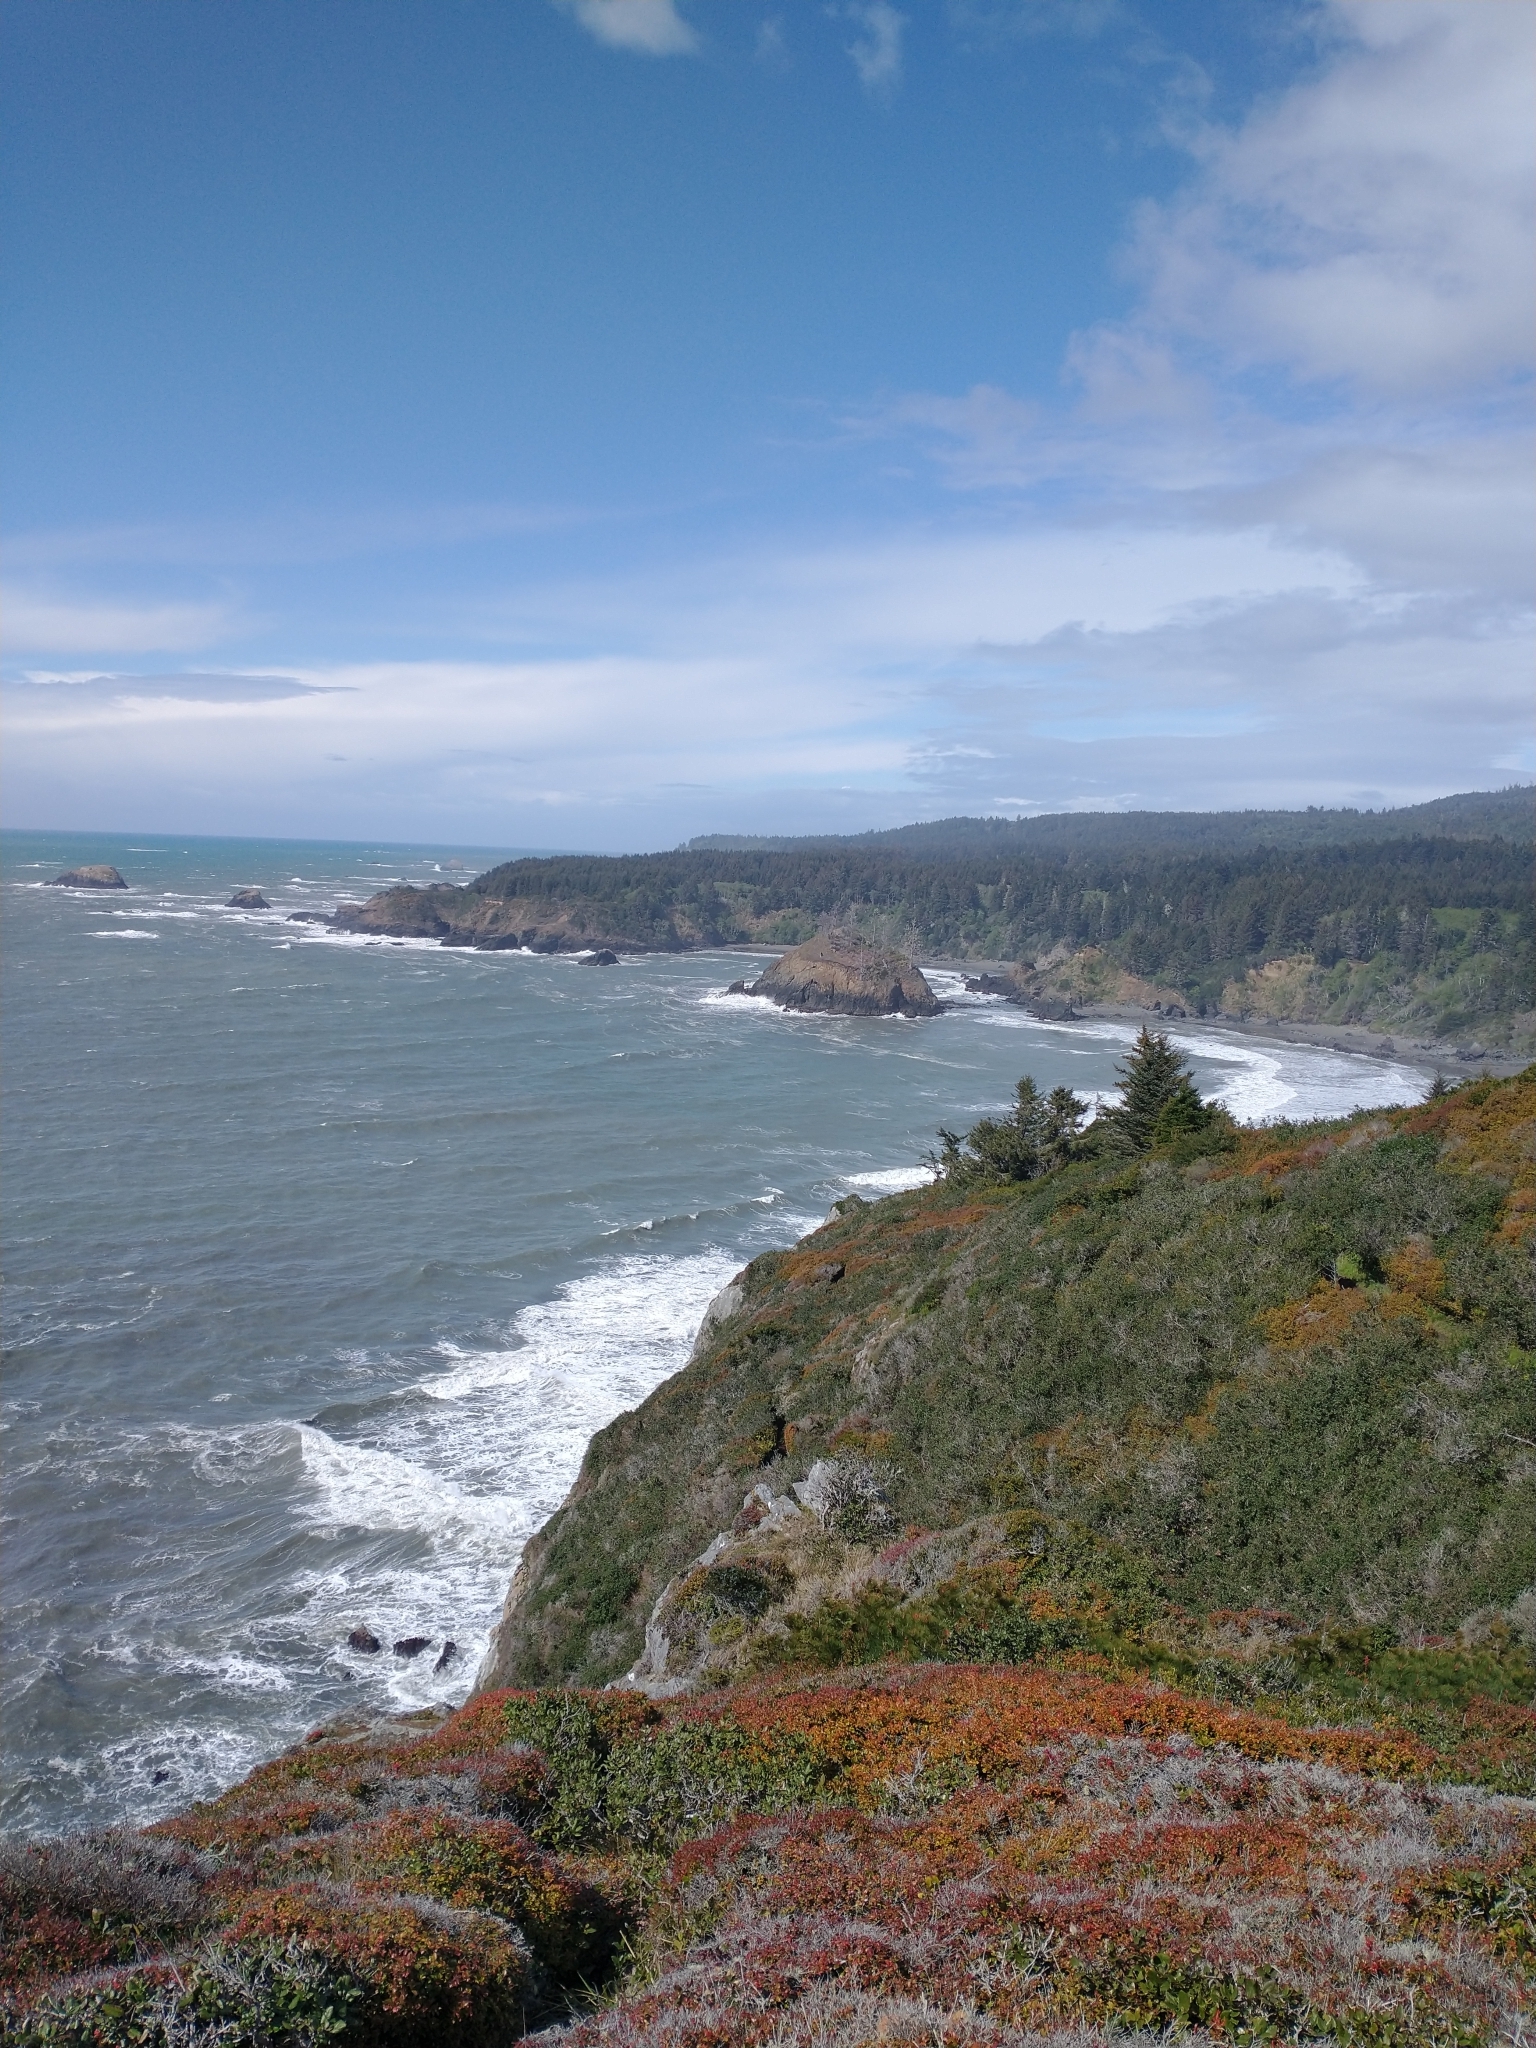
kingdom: Plantae
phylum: Tracheophyta
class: Magnoliopsida
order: Ericales
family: Ericaceae
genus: Vaccinium
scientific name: Vaccinium ovatum
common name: California-huckleberry
